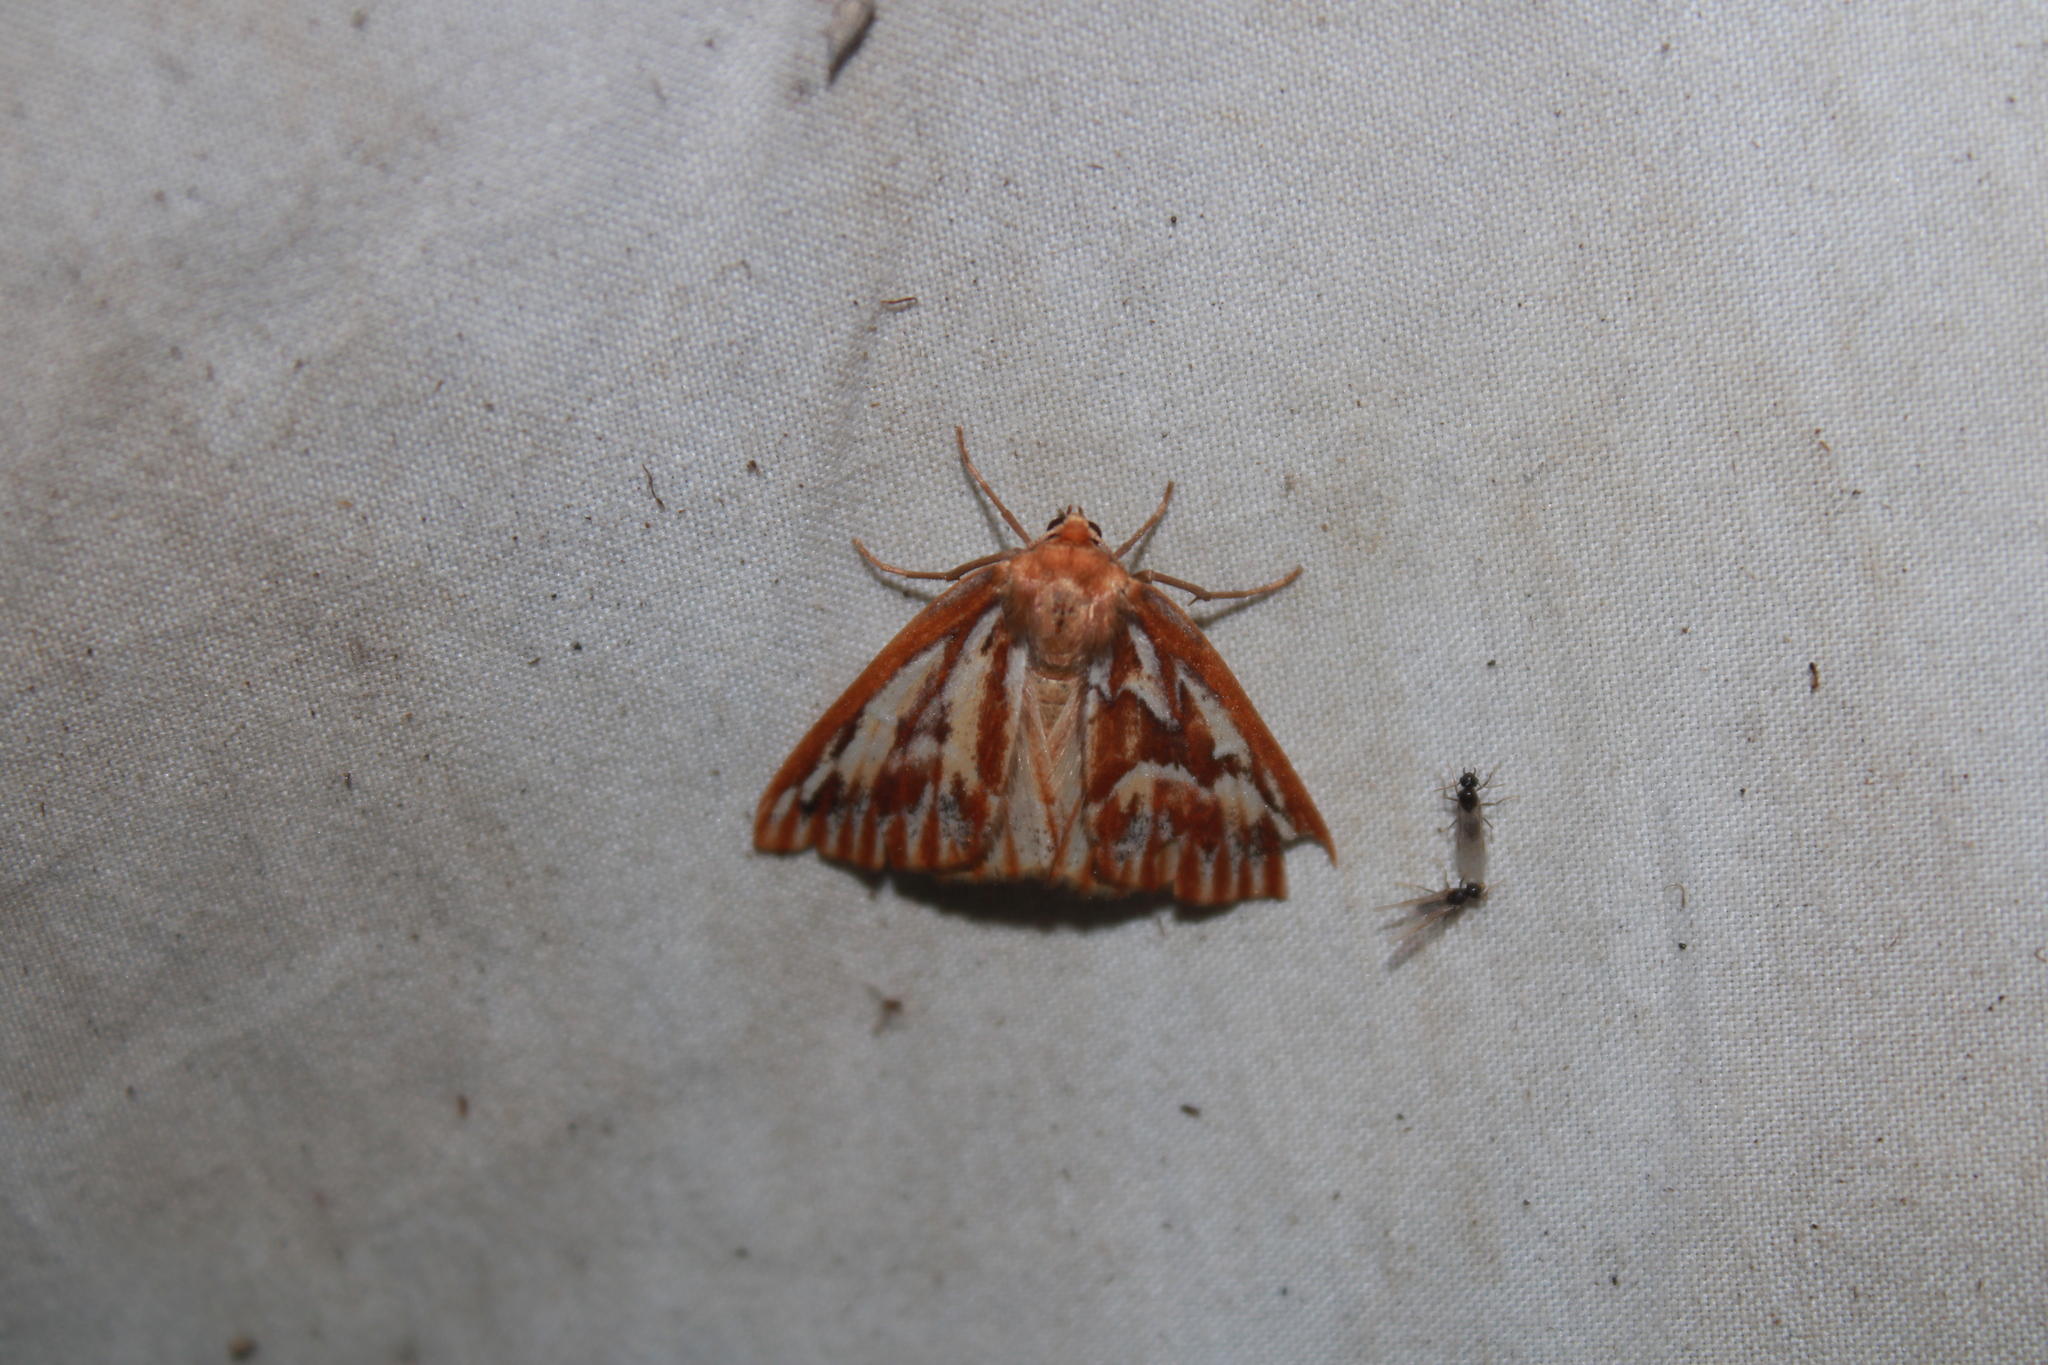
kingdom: Animalia
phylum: Arthropoda
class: Insecta
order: Lepidoptera
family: Geometridae
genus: Caripeta
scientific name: Caripeta piniata
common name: Northern pine looper moth
